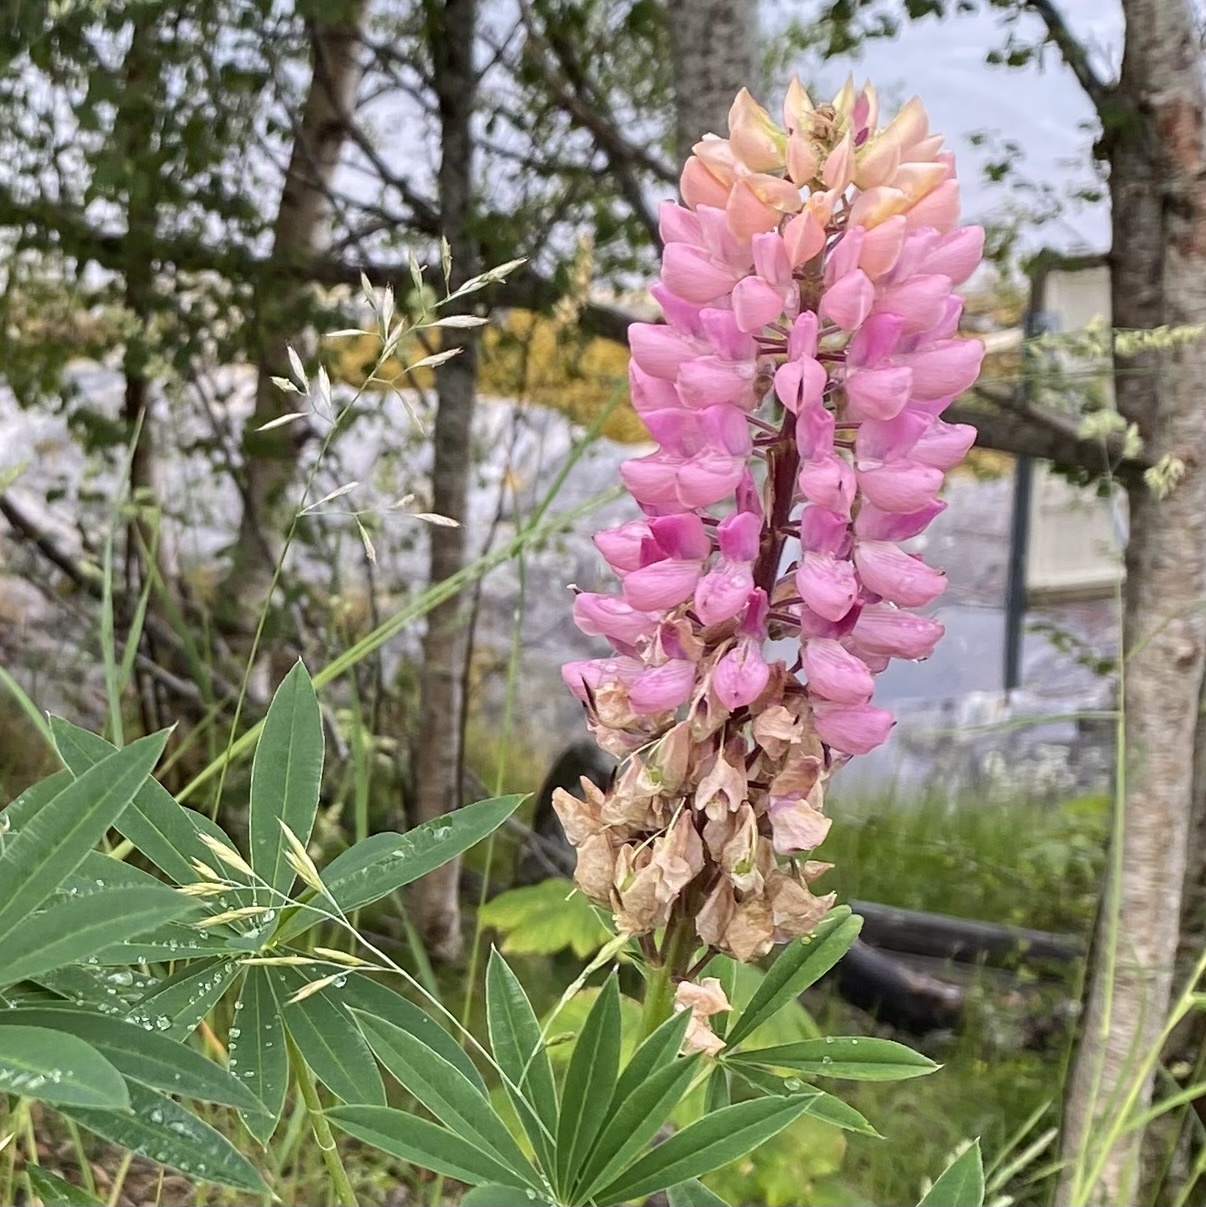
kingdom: Plantae
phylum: Tracheophyta
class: Magnoliopsida
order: Fabales
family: Fabaceae
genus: Lupinus
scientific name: Lupinus polyphyllus
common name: Garden lupin
